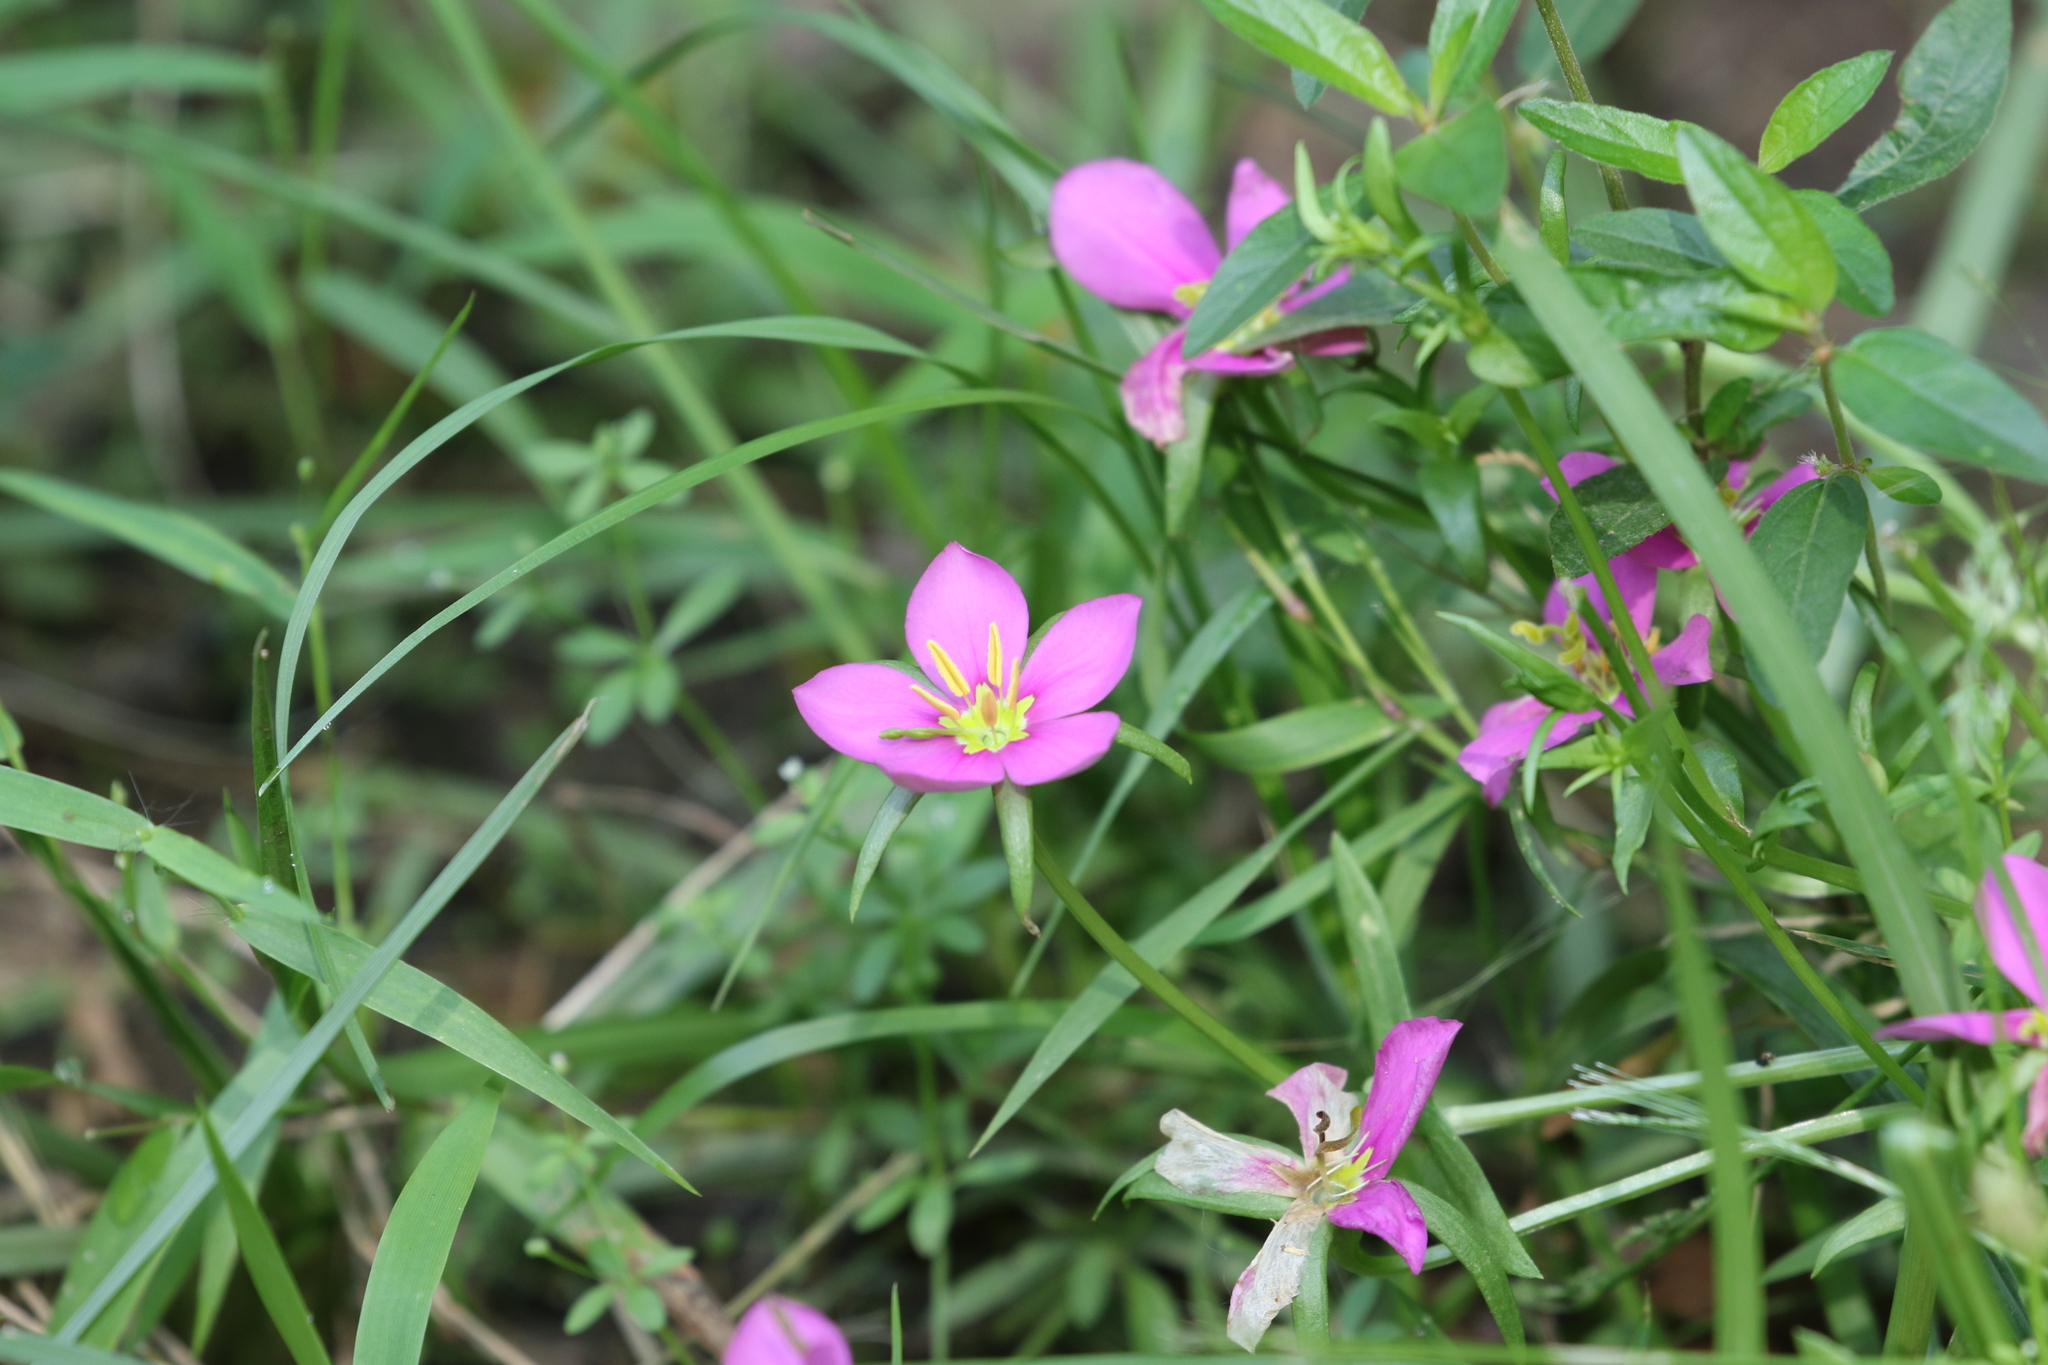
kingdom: Plantae
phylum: Tracheophyta
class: Magnoliopsida
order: Gentianales
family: Gentianaceae
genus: Sabatia
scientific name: Sabatia campestris
